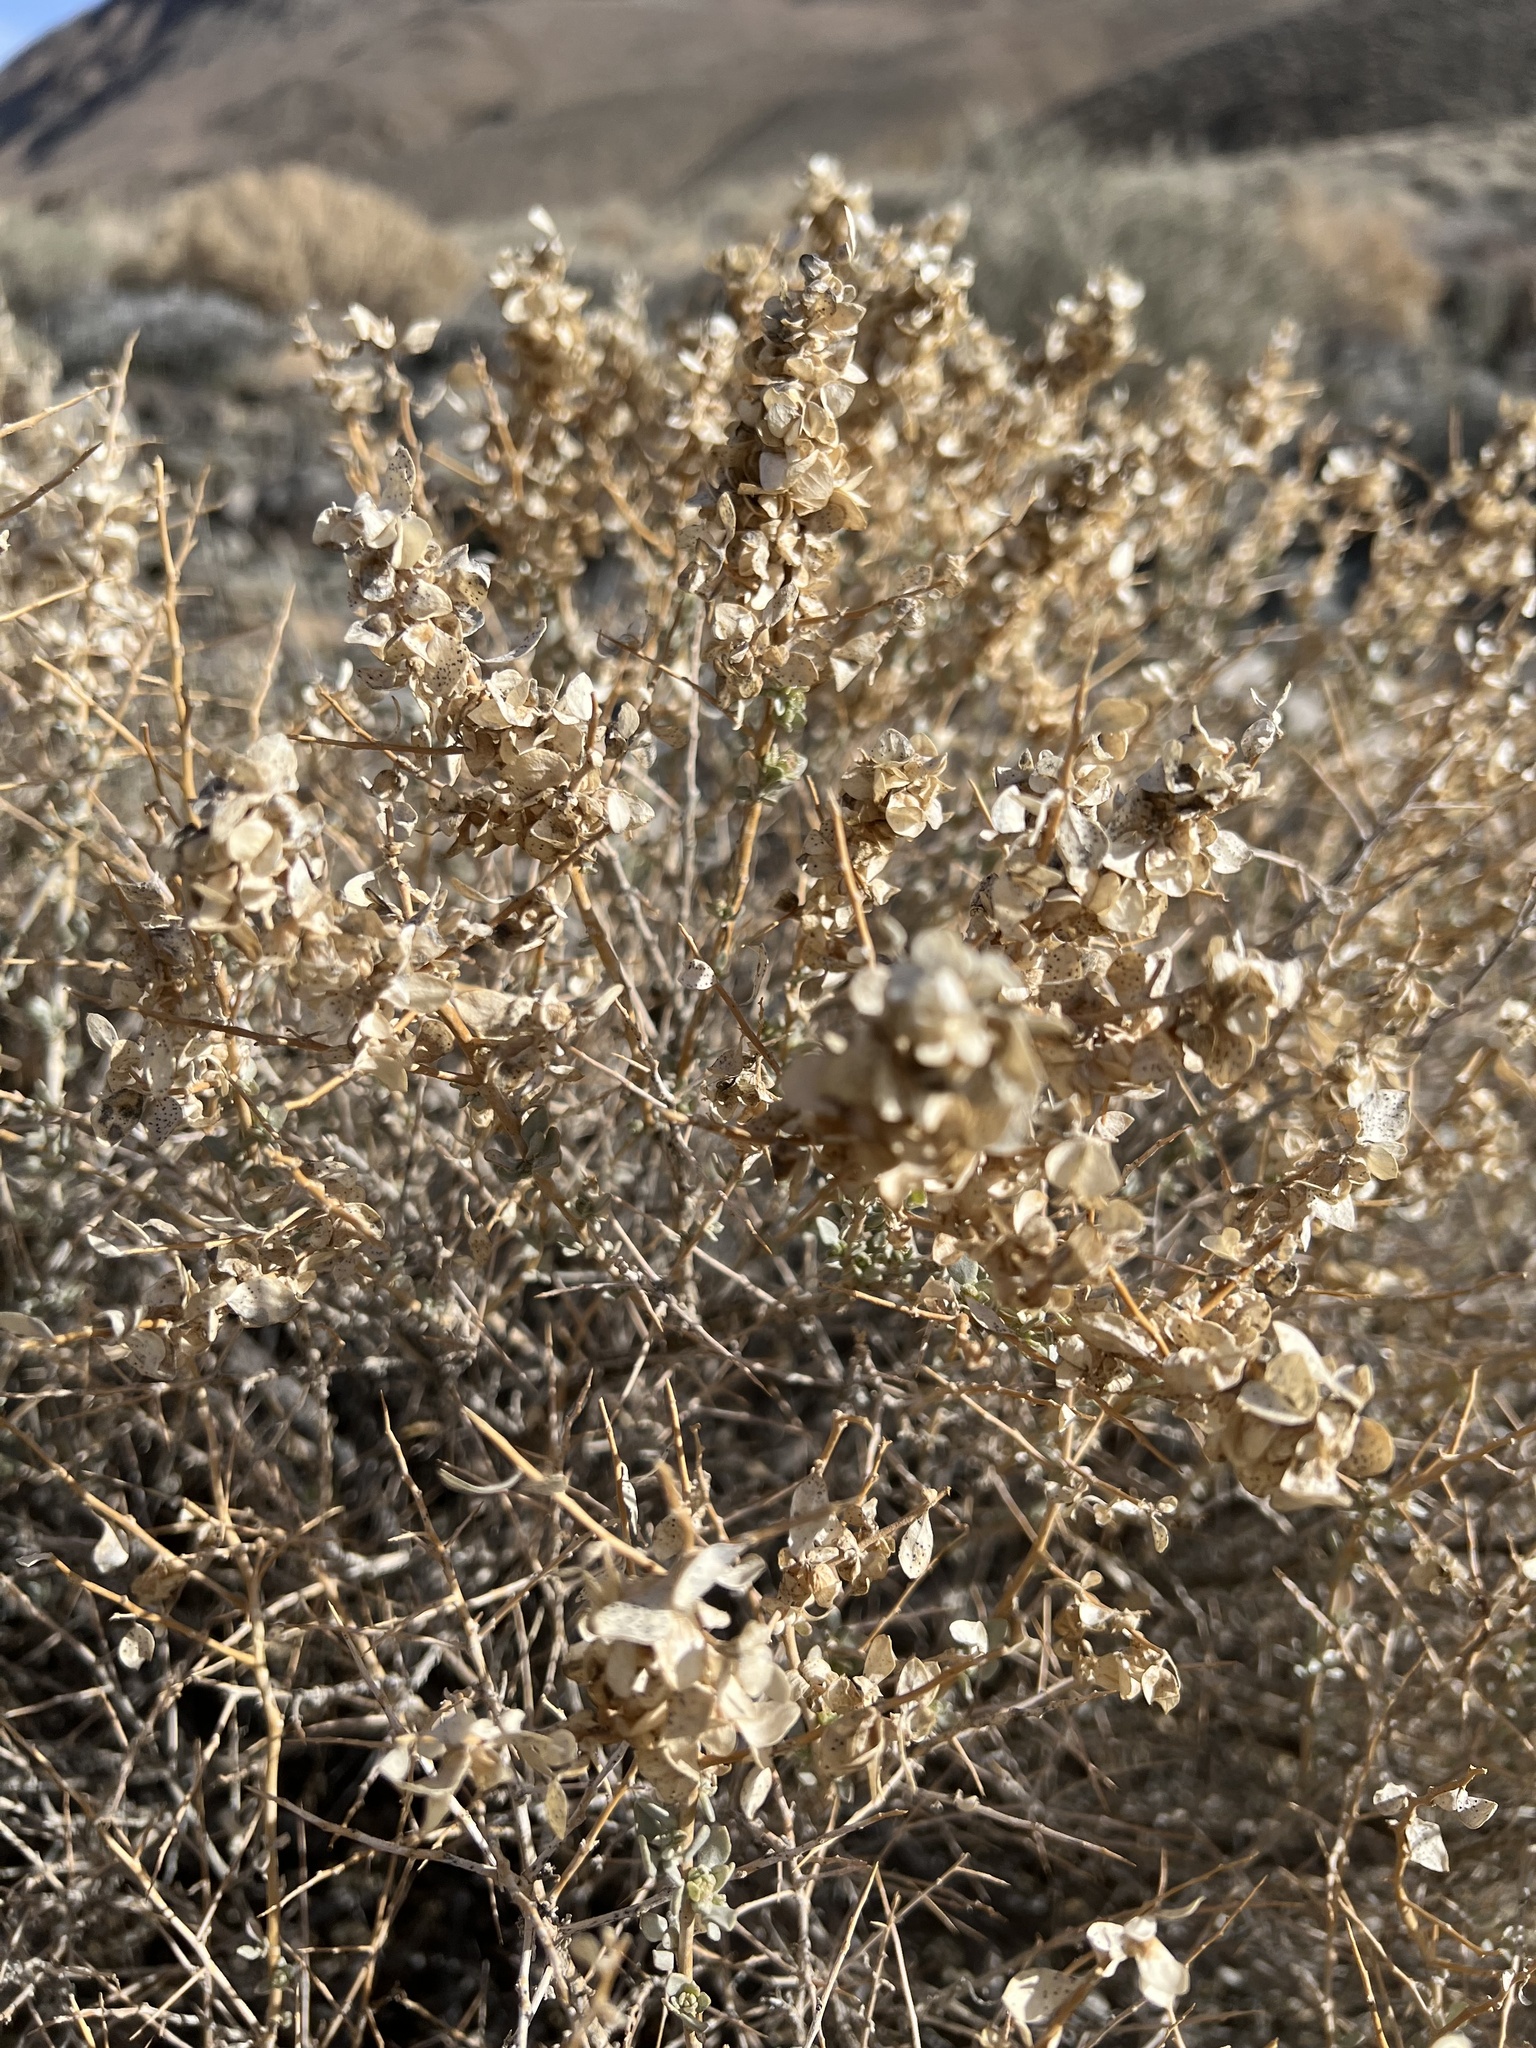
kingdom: Plantae
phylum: Tracheophyta
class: Magnoliopsida
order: Caryophyllales
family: Amaranthaceae
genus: Atriplex
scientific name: Atriplex confertifolia
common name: Shadscale
